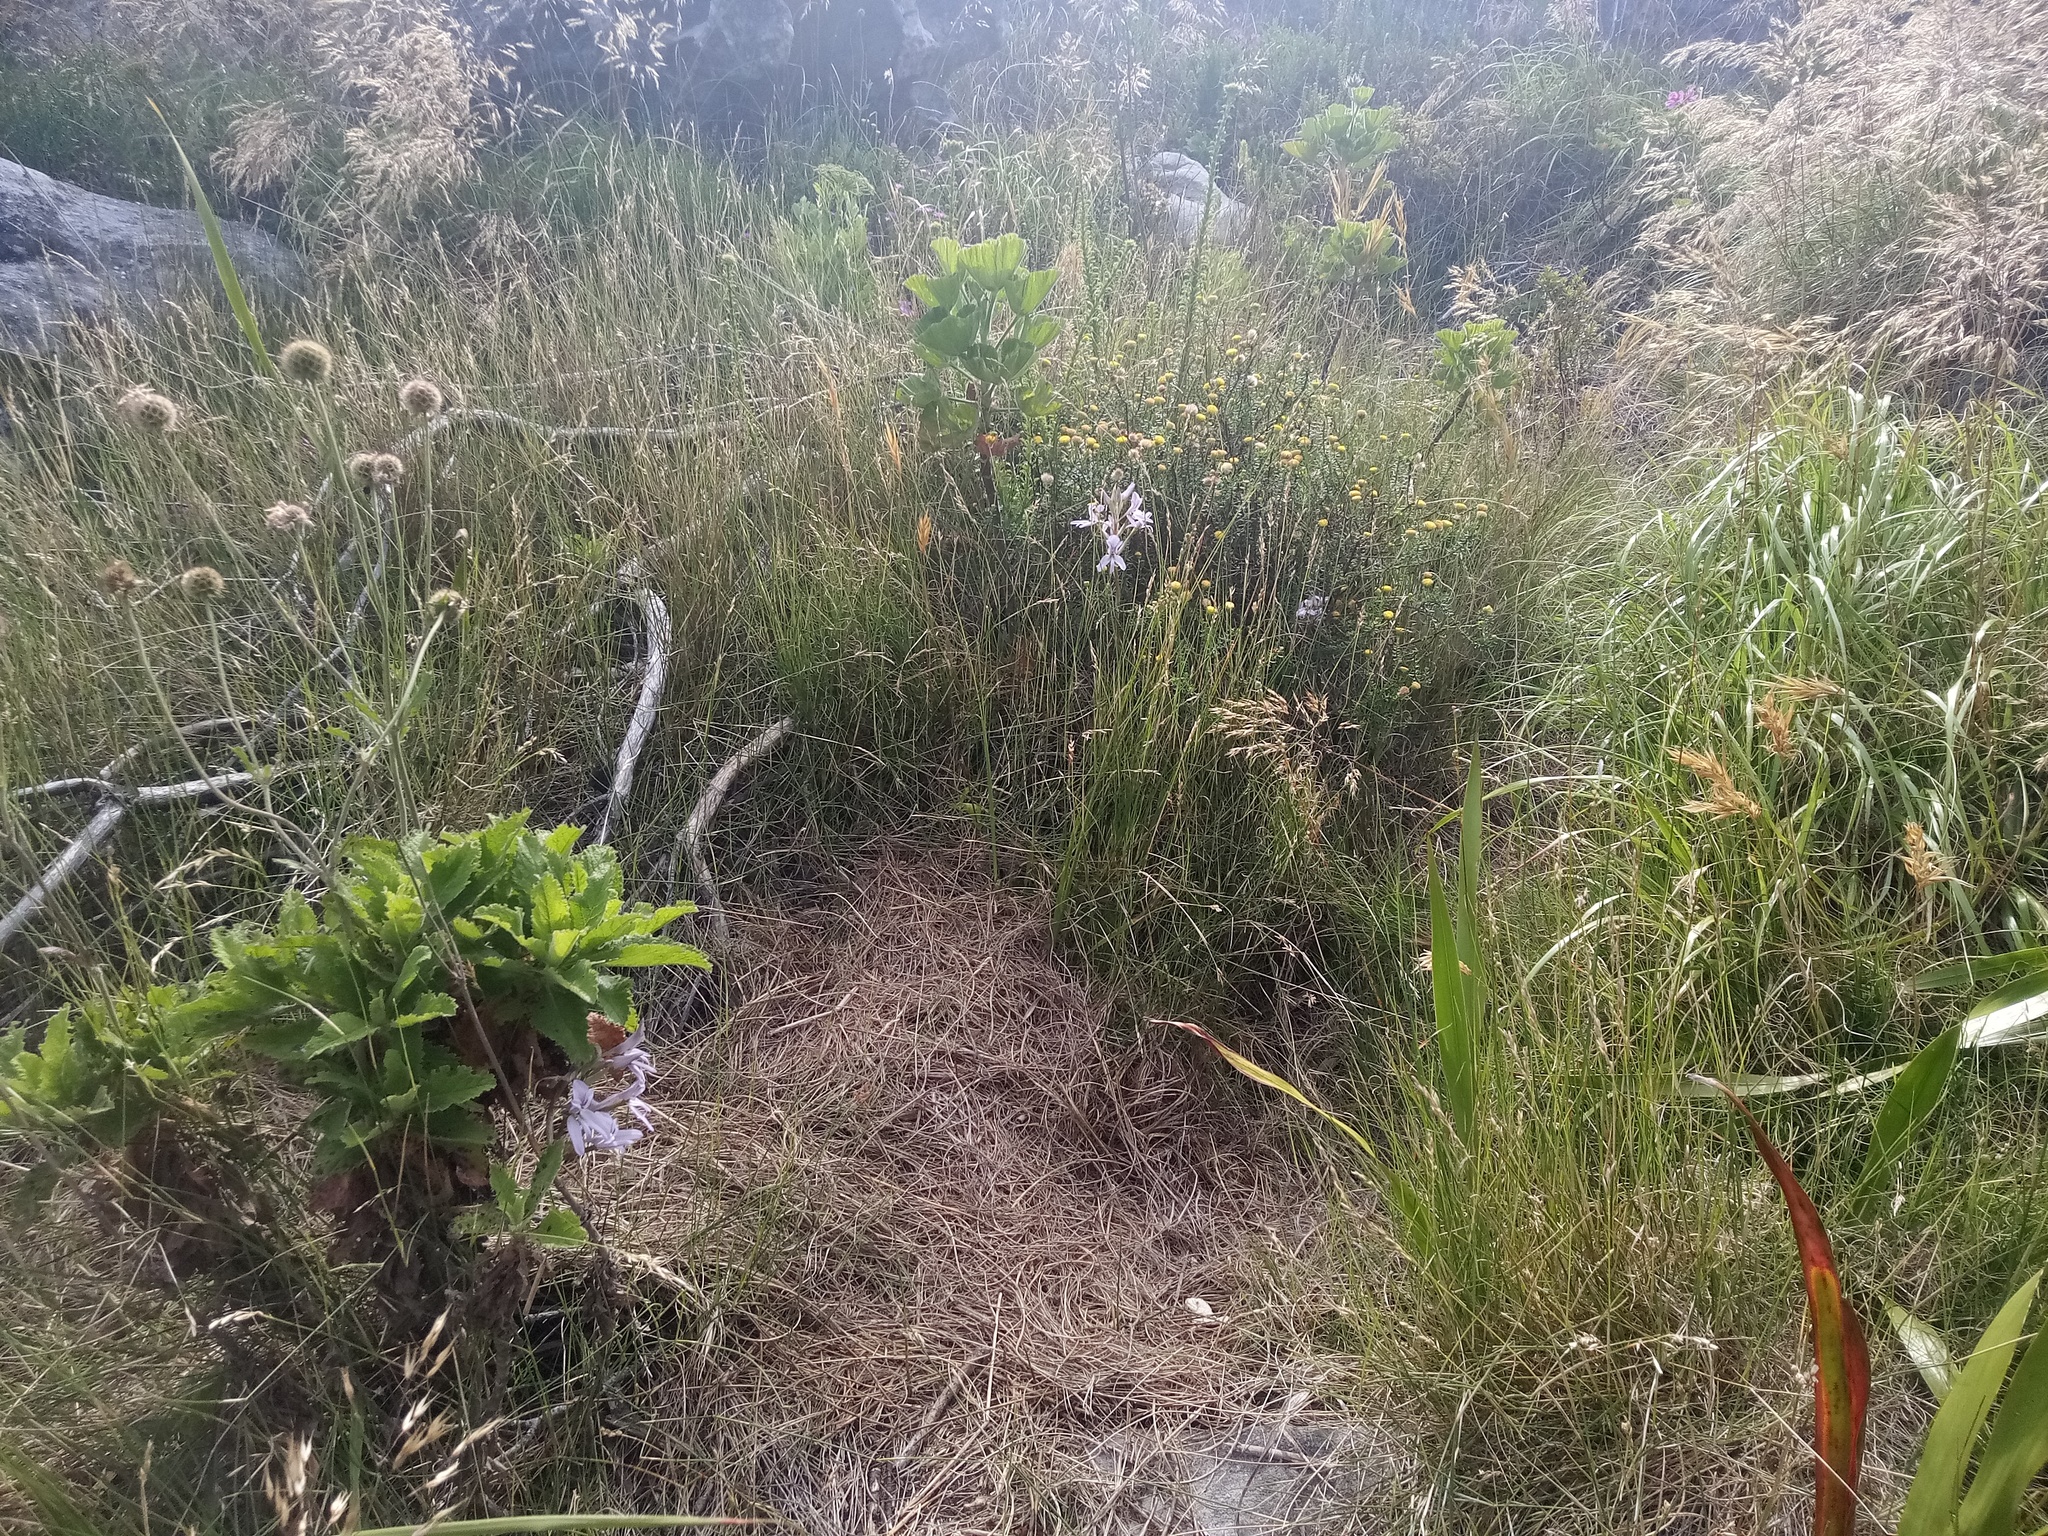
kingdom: Plantae
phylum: Tracheophyta
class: Liliopsida
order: Asparagales
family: Orchidaceae
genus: Disa
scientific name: Disa harveyana
